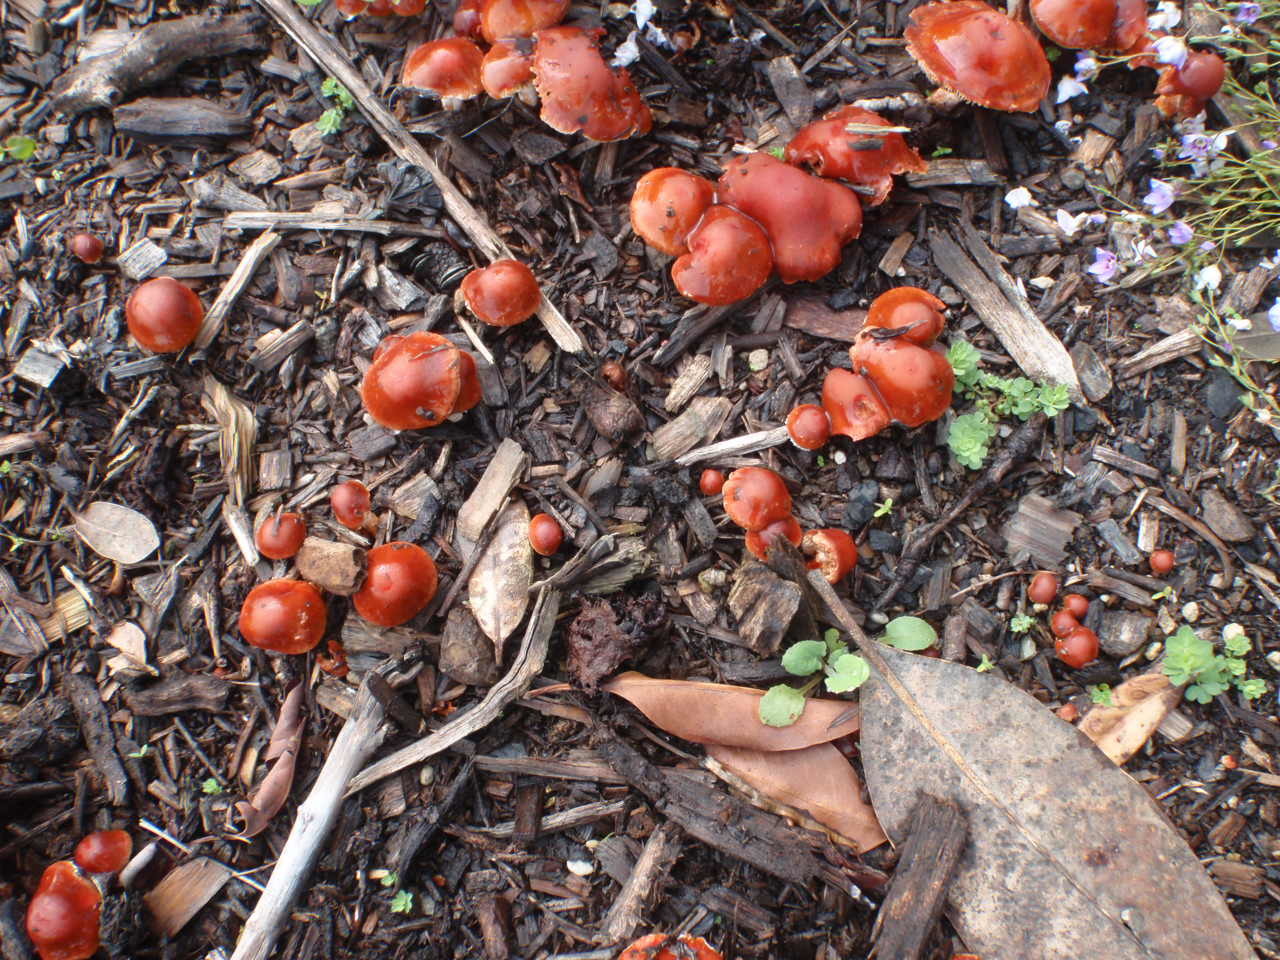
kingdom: Fungi
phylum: Basidiomycota
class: Agaricomycetes
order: Agaricales
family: Strophariaceae
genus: Leratiomyces
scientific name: Leratiomyces ceres
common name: Redlead roundhead
